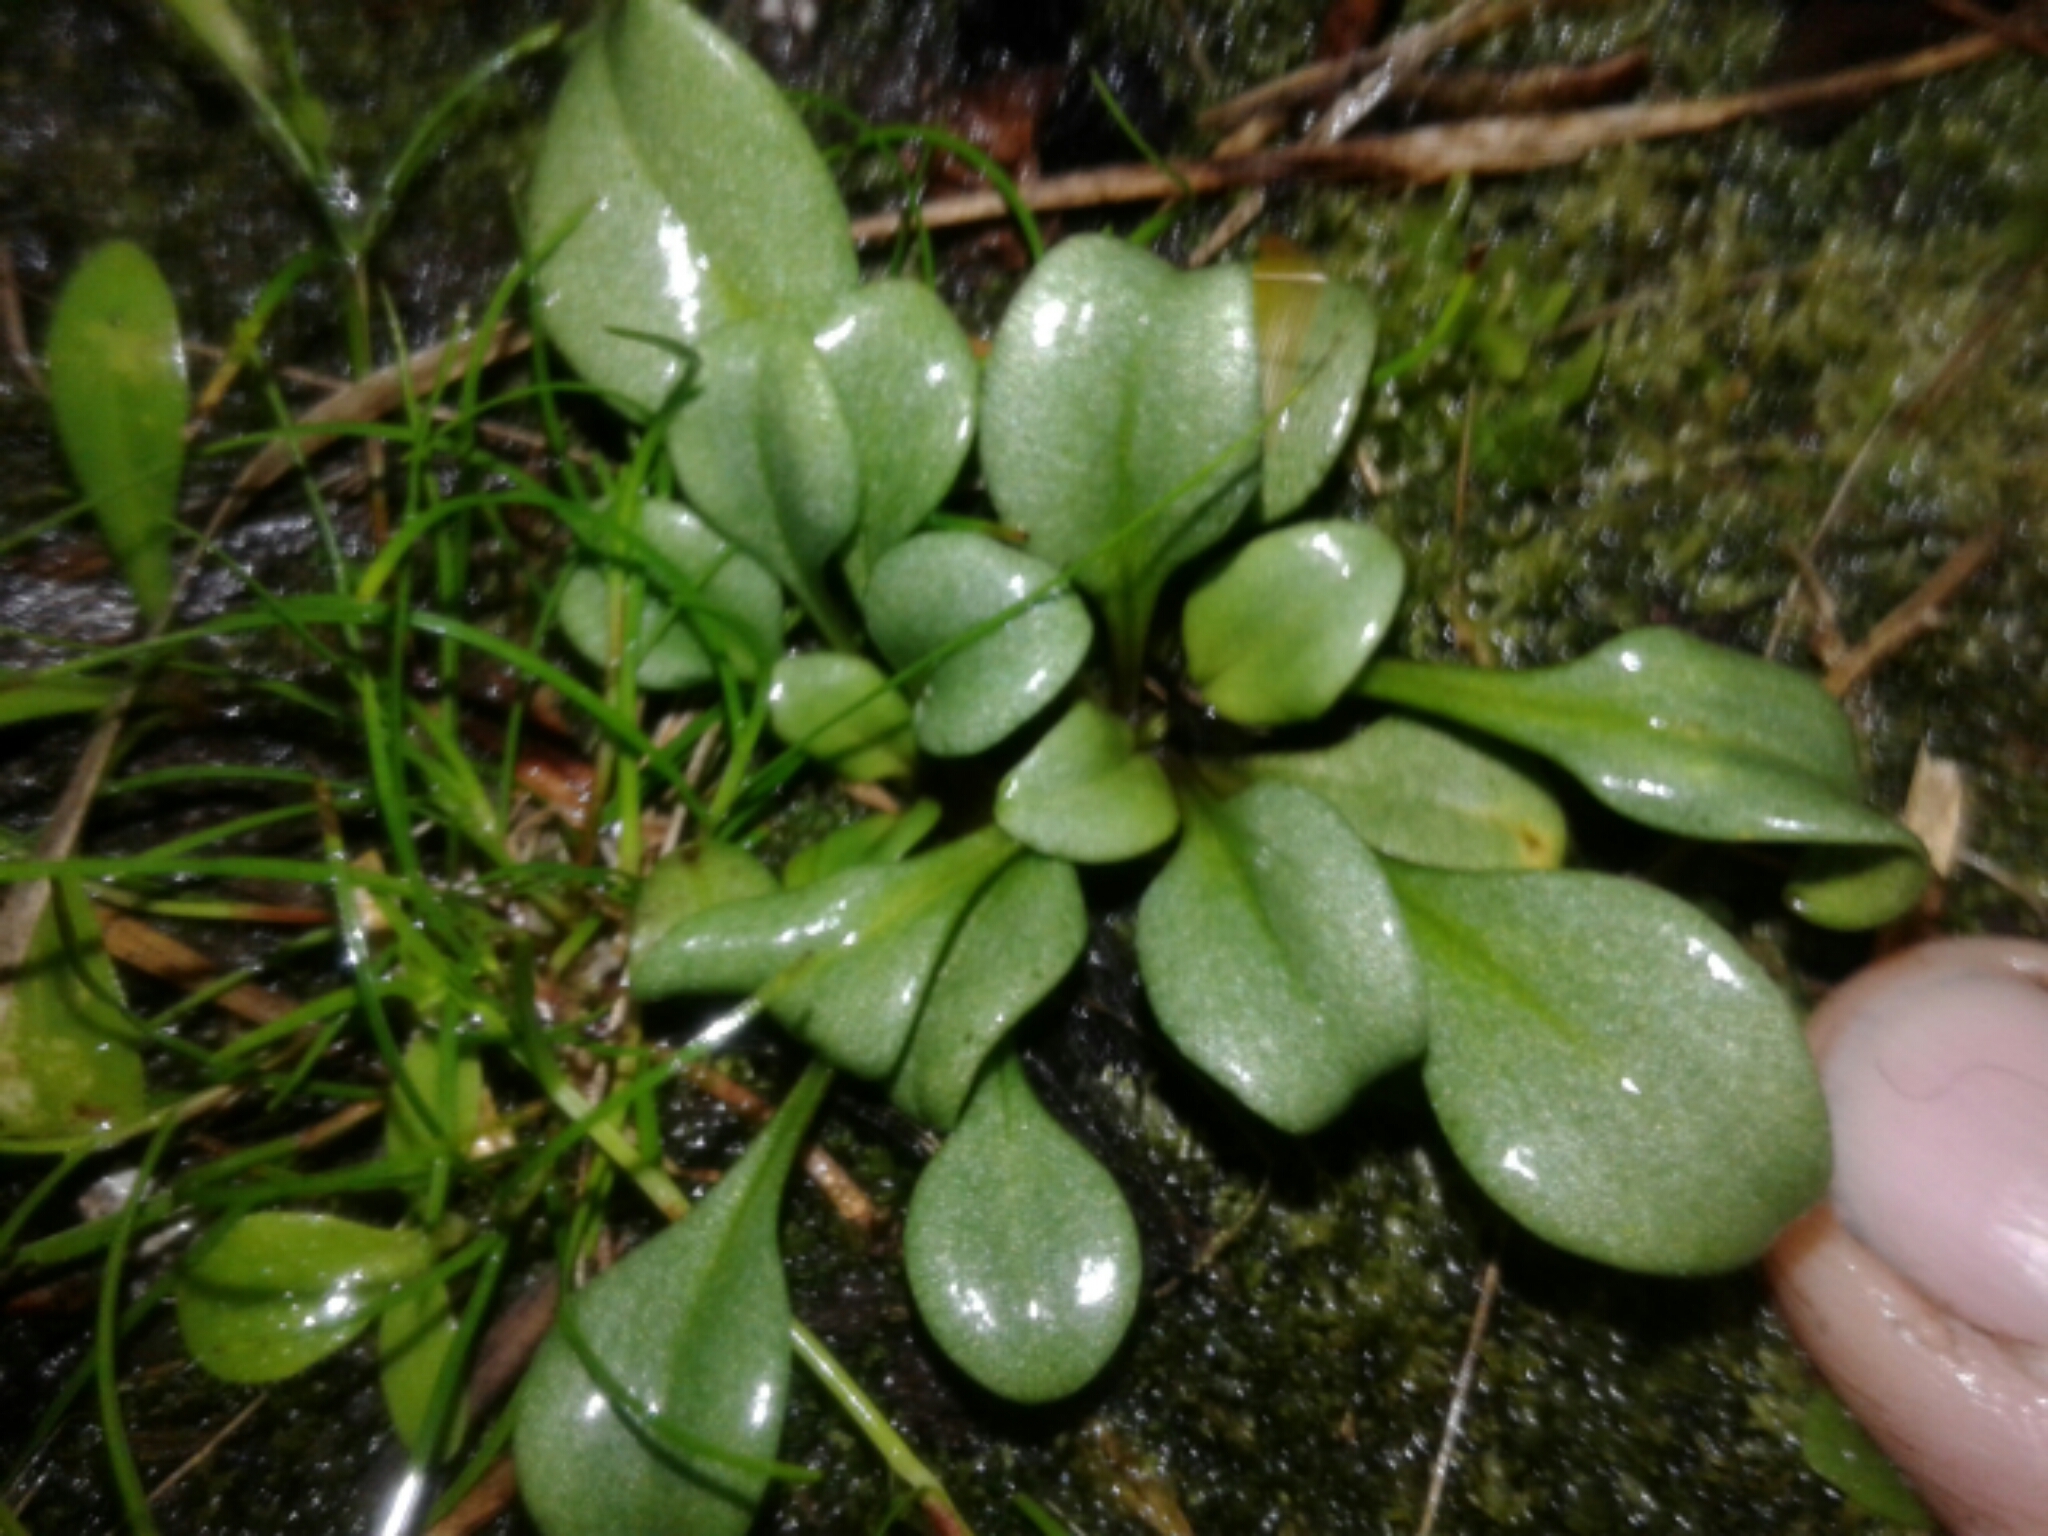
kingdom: Plantae
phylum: Tracheophyta
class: Magnoliopsida
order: Gentianales
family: Gentianaceae
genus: Gentianella
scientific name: Gentianella stevenii
